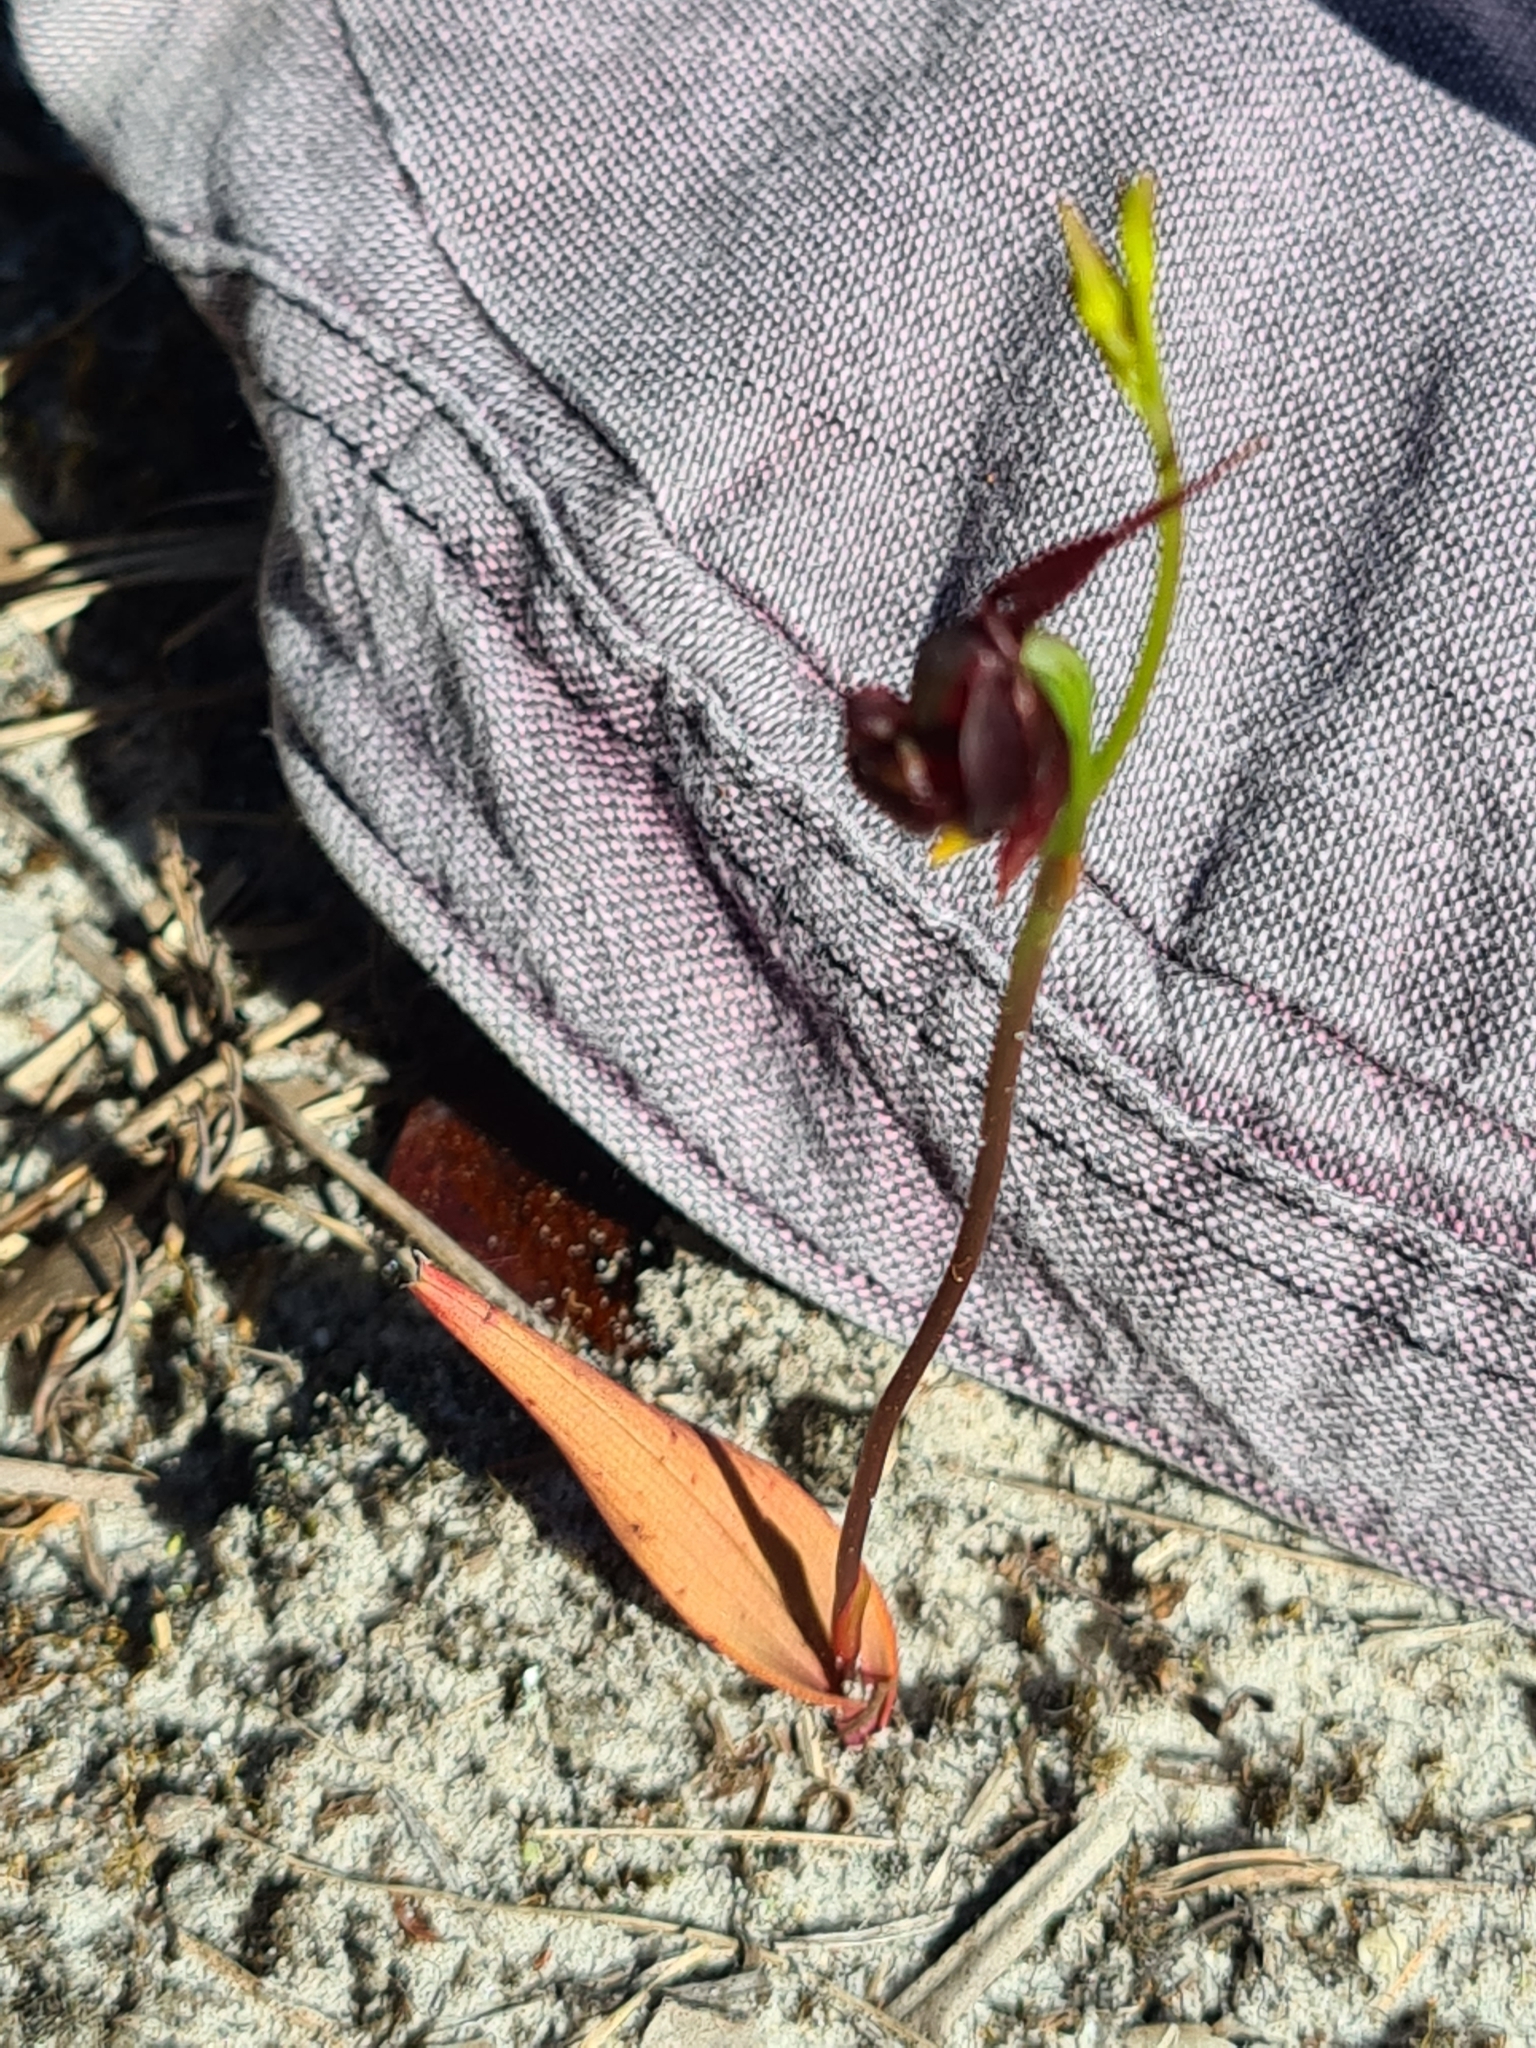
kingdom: Plantae
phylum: Tracheophyta
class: Liliopsida
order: Asparagales
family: Orchidaceae
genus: Caleana
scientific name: Caleana major
